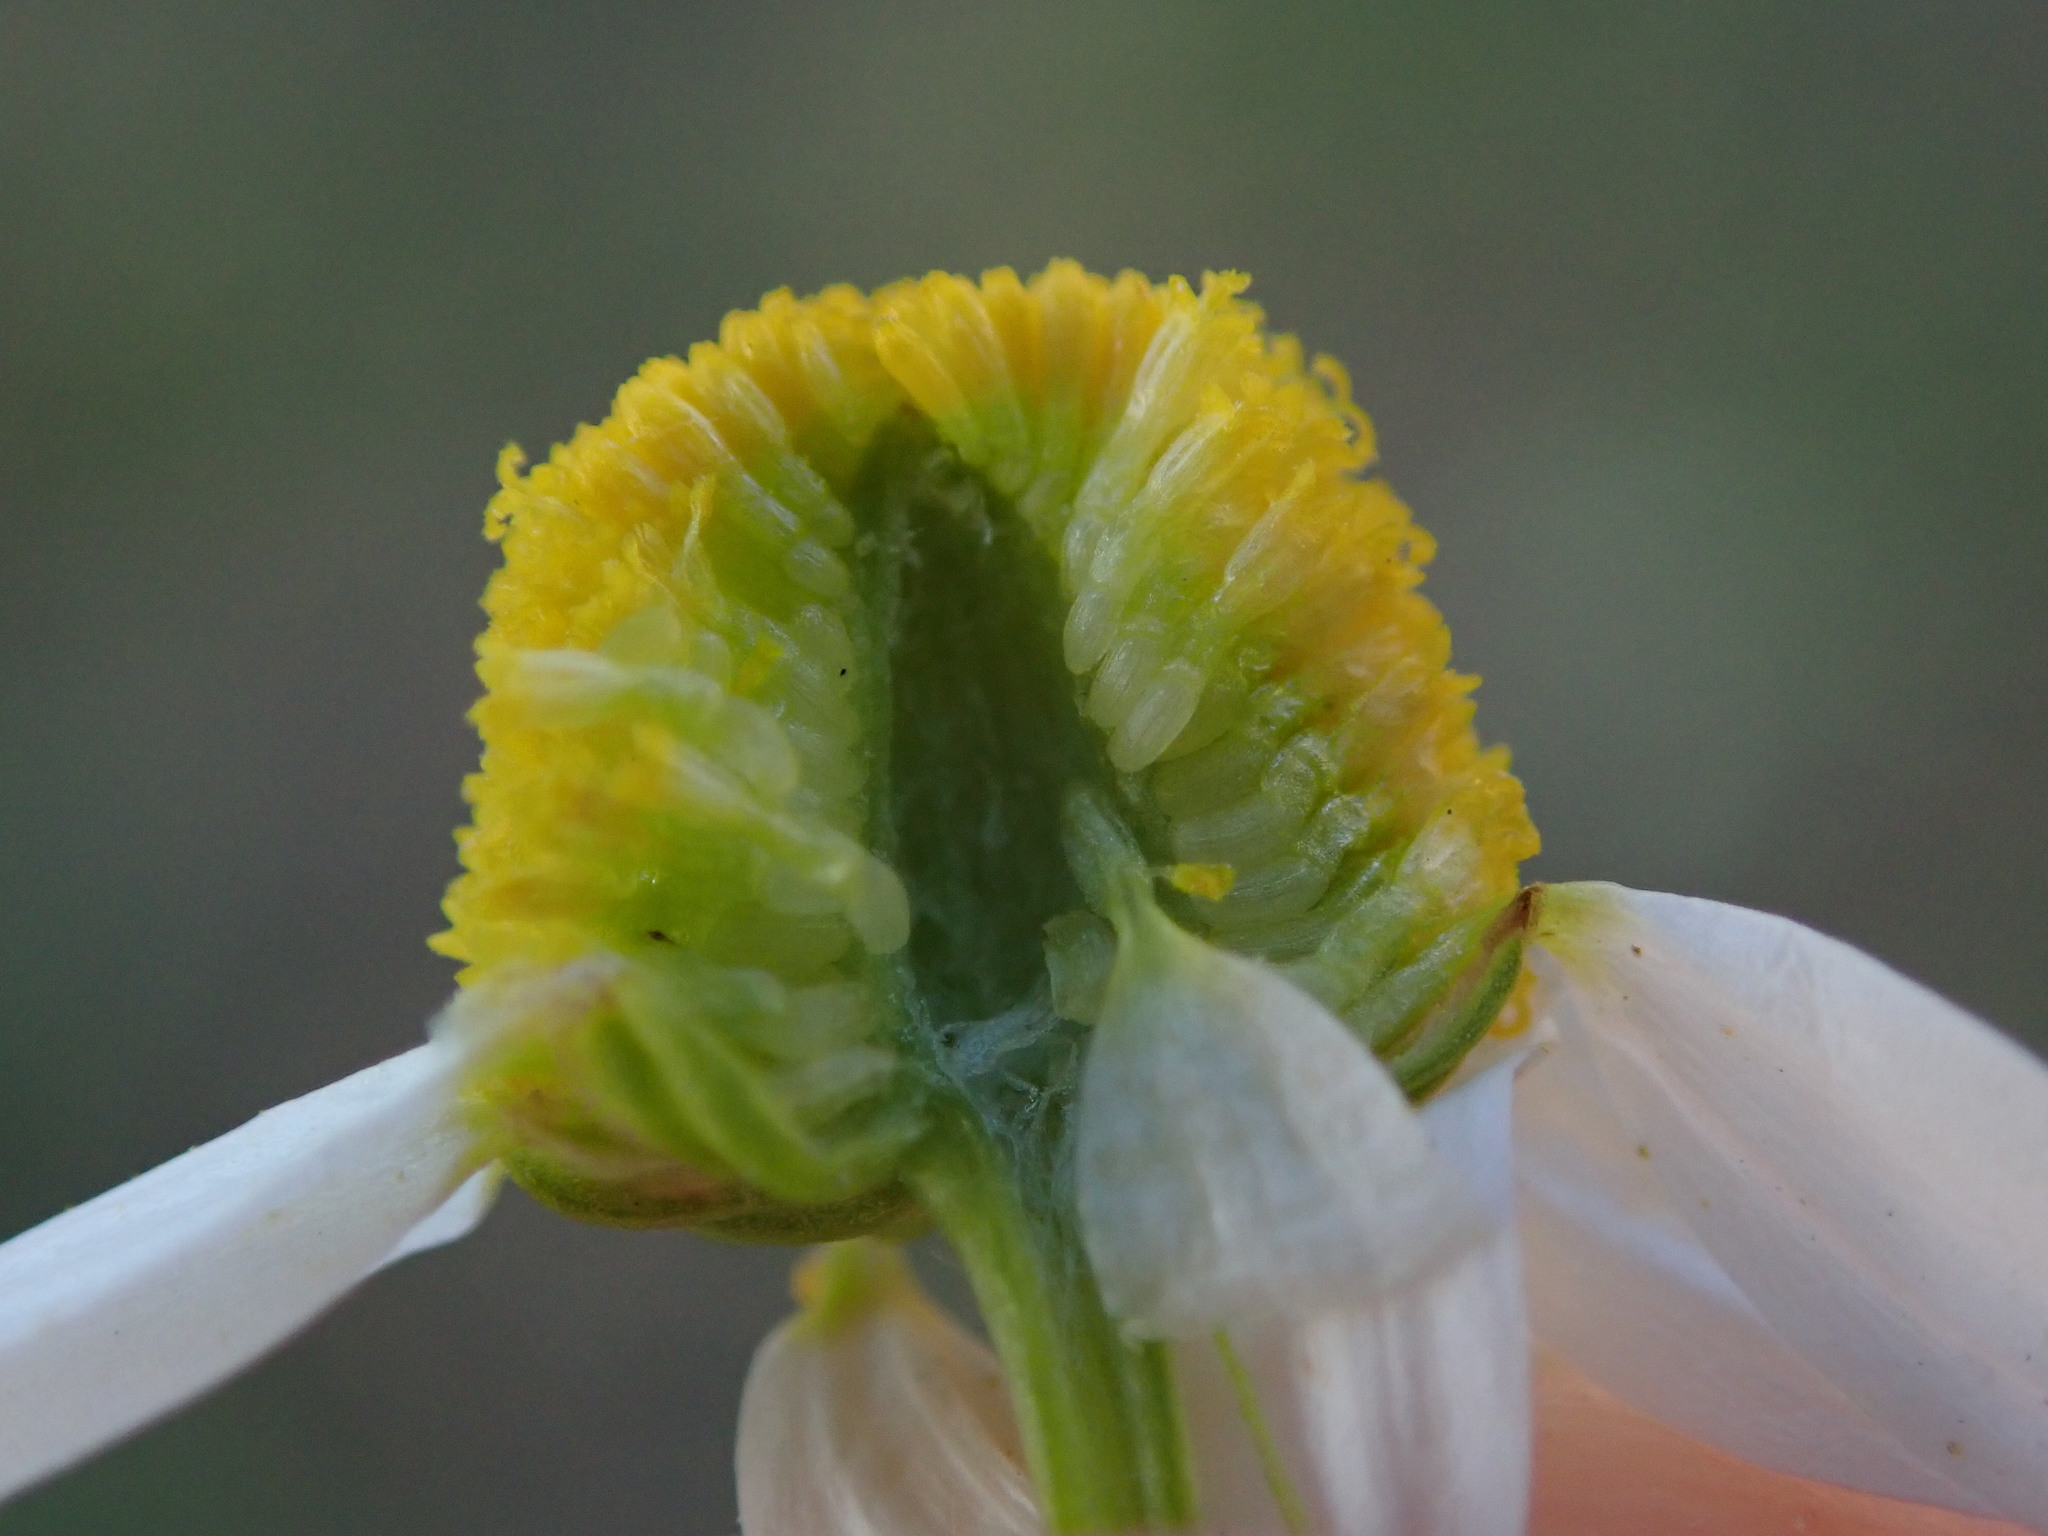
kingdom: Plantae
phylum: Tracheophyta
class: Magnoliopsida
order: Asterales
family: Asteraceae
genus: Matricaria
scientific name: Matricaria chamomilla
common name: Scented mayweed
